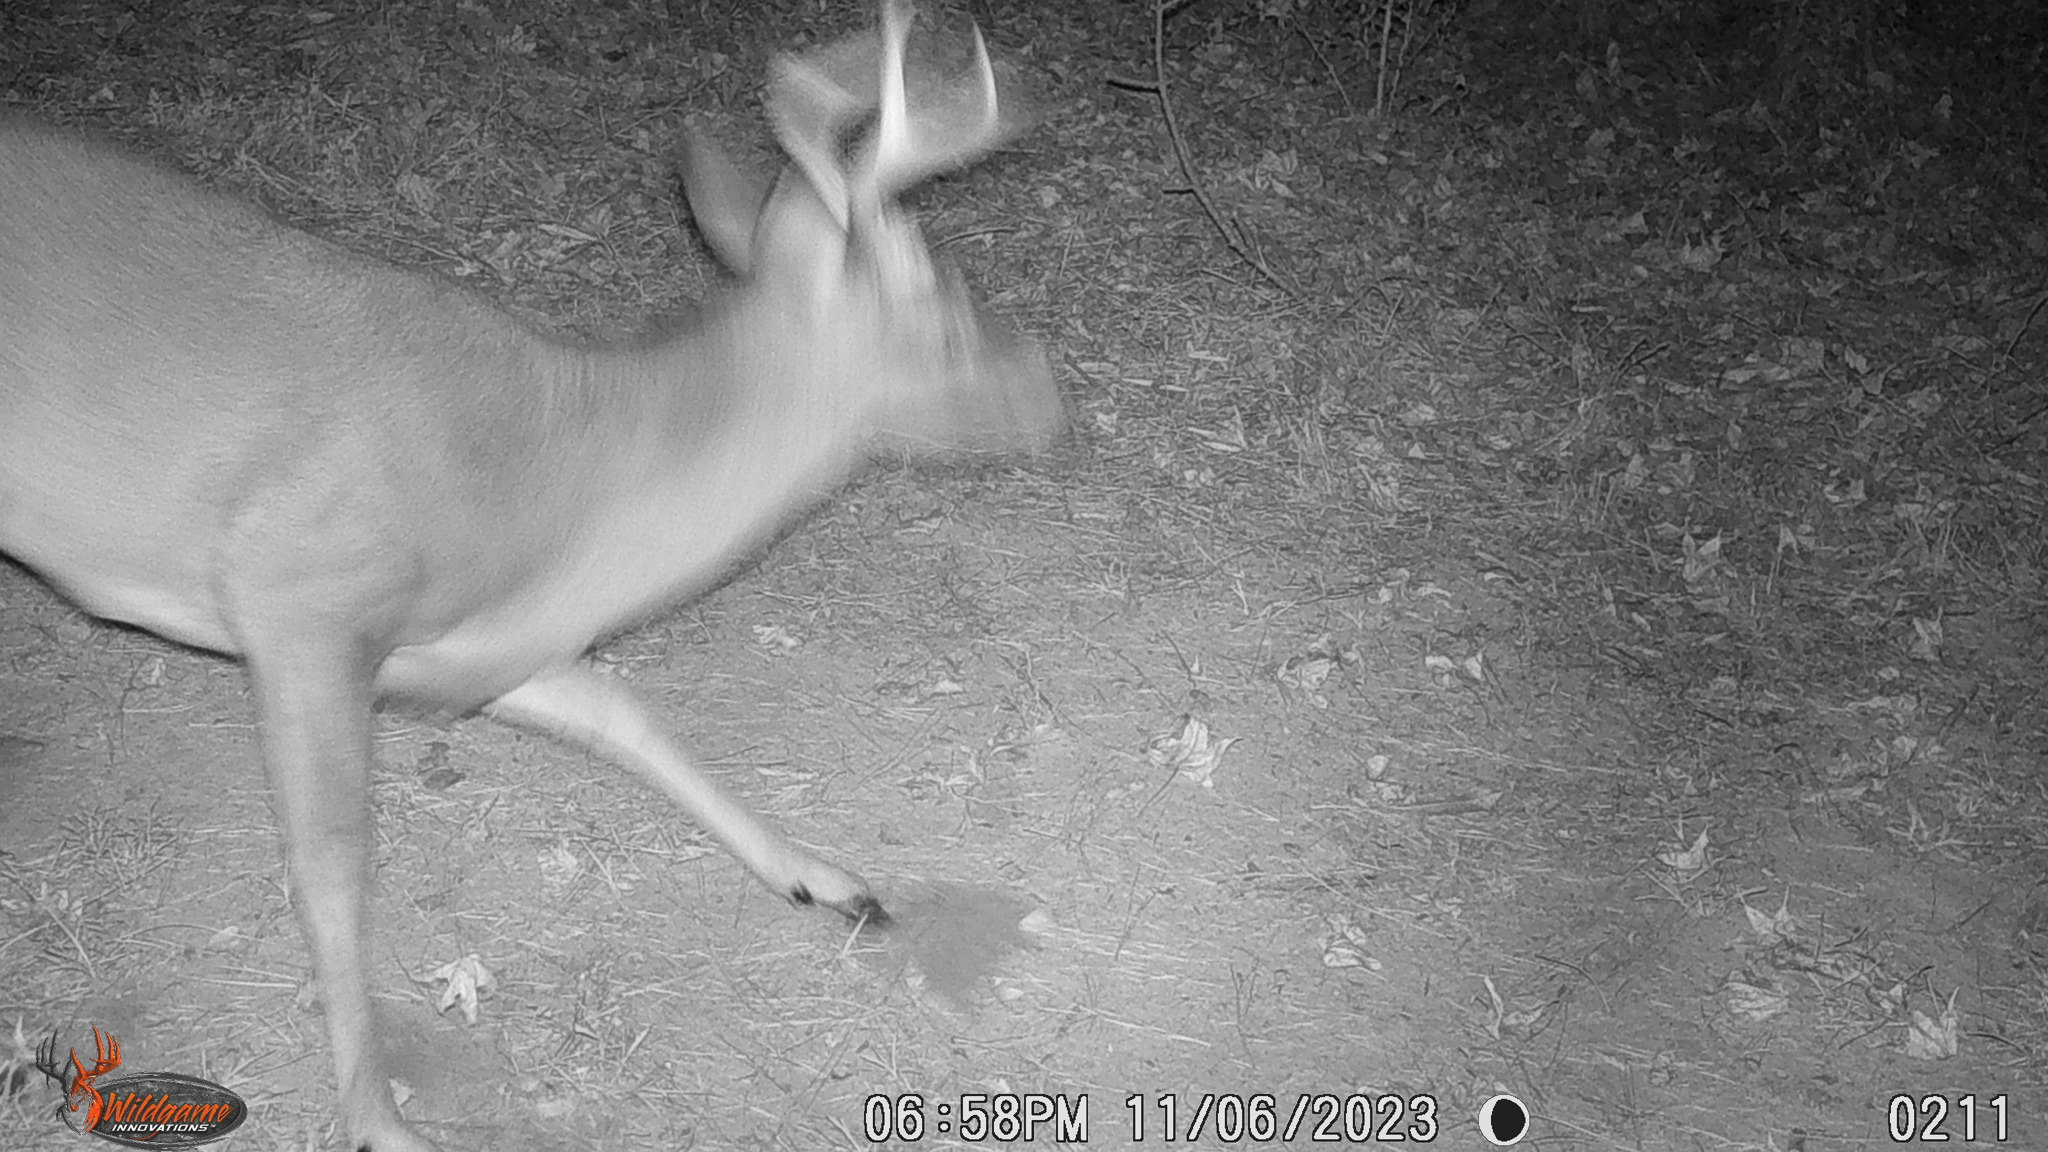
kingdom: Animalia
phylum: Chordata
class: Mammalia
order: Artiodactyla
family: Cervidae
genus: Odocoileus
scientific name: Odocoileus virginianus
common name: White-tailed deer
